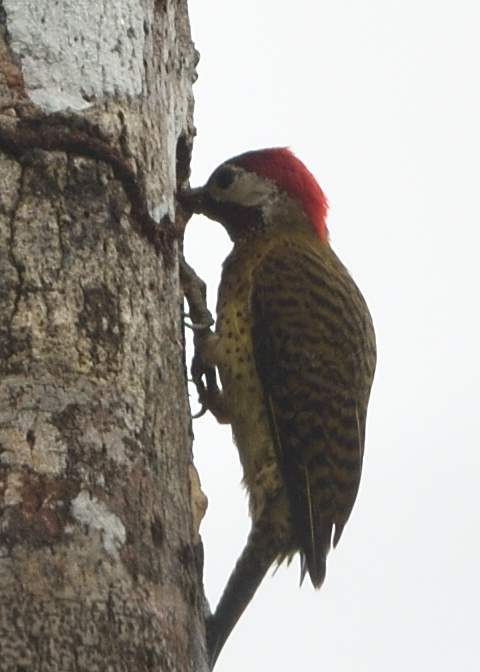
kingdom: Animalia
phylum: Chordata
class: Aves
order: Piciformes
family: Picidae
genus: Colaptes
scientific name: Colaptes punctigula
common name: Spot-breasted woodpecker
